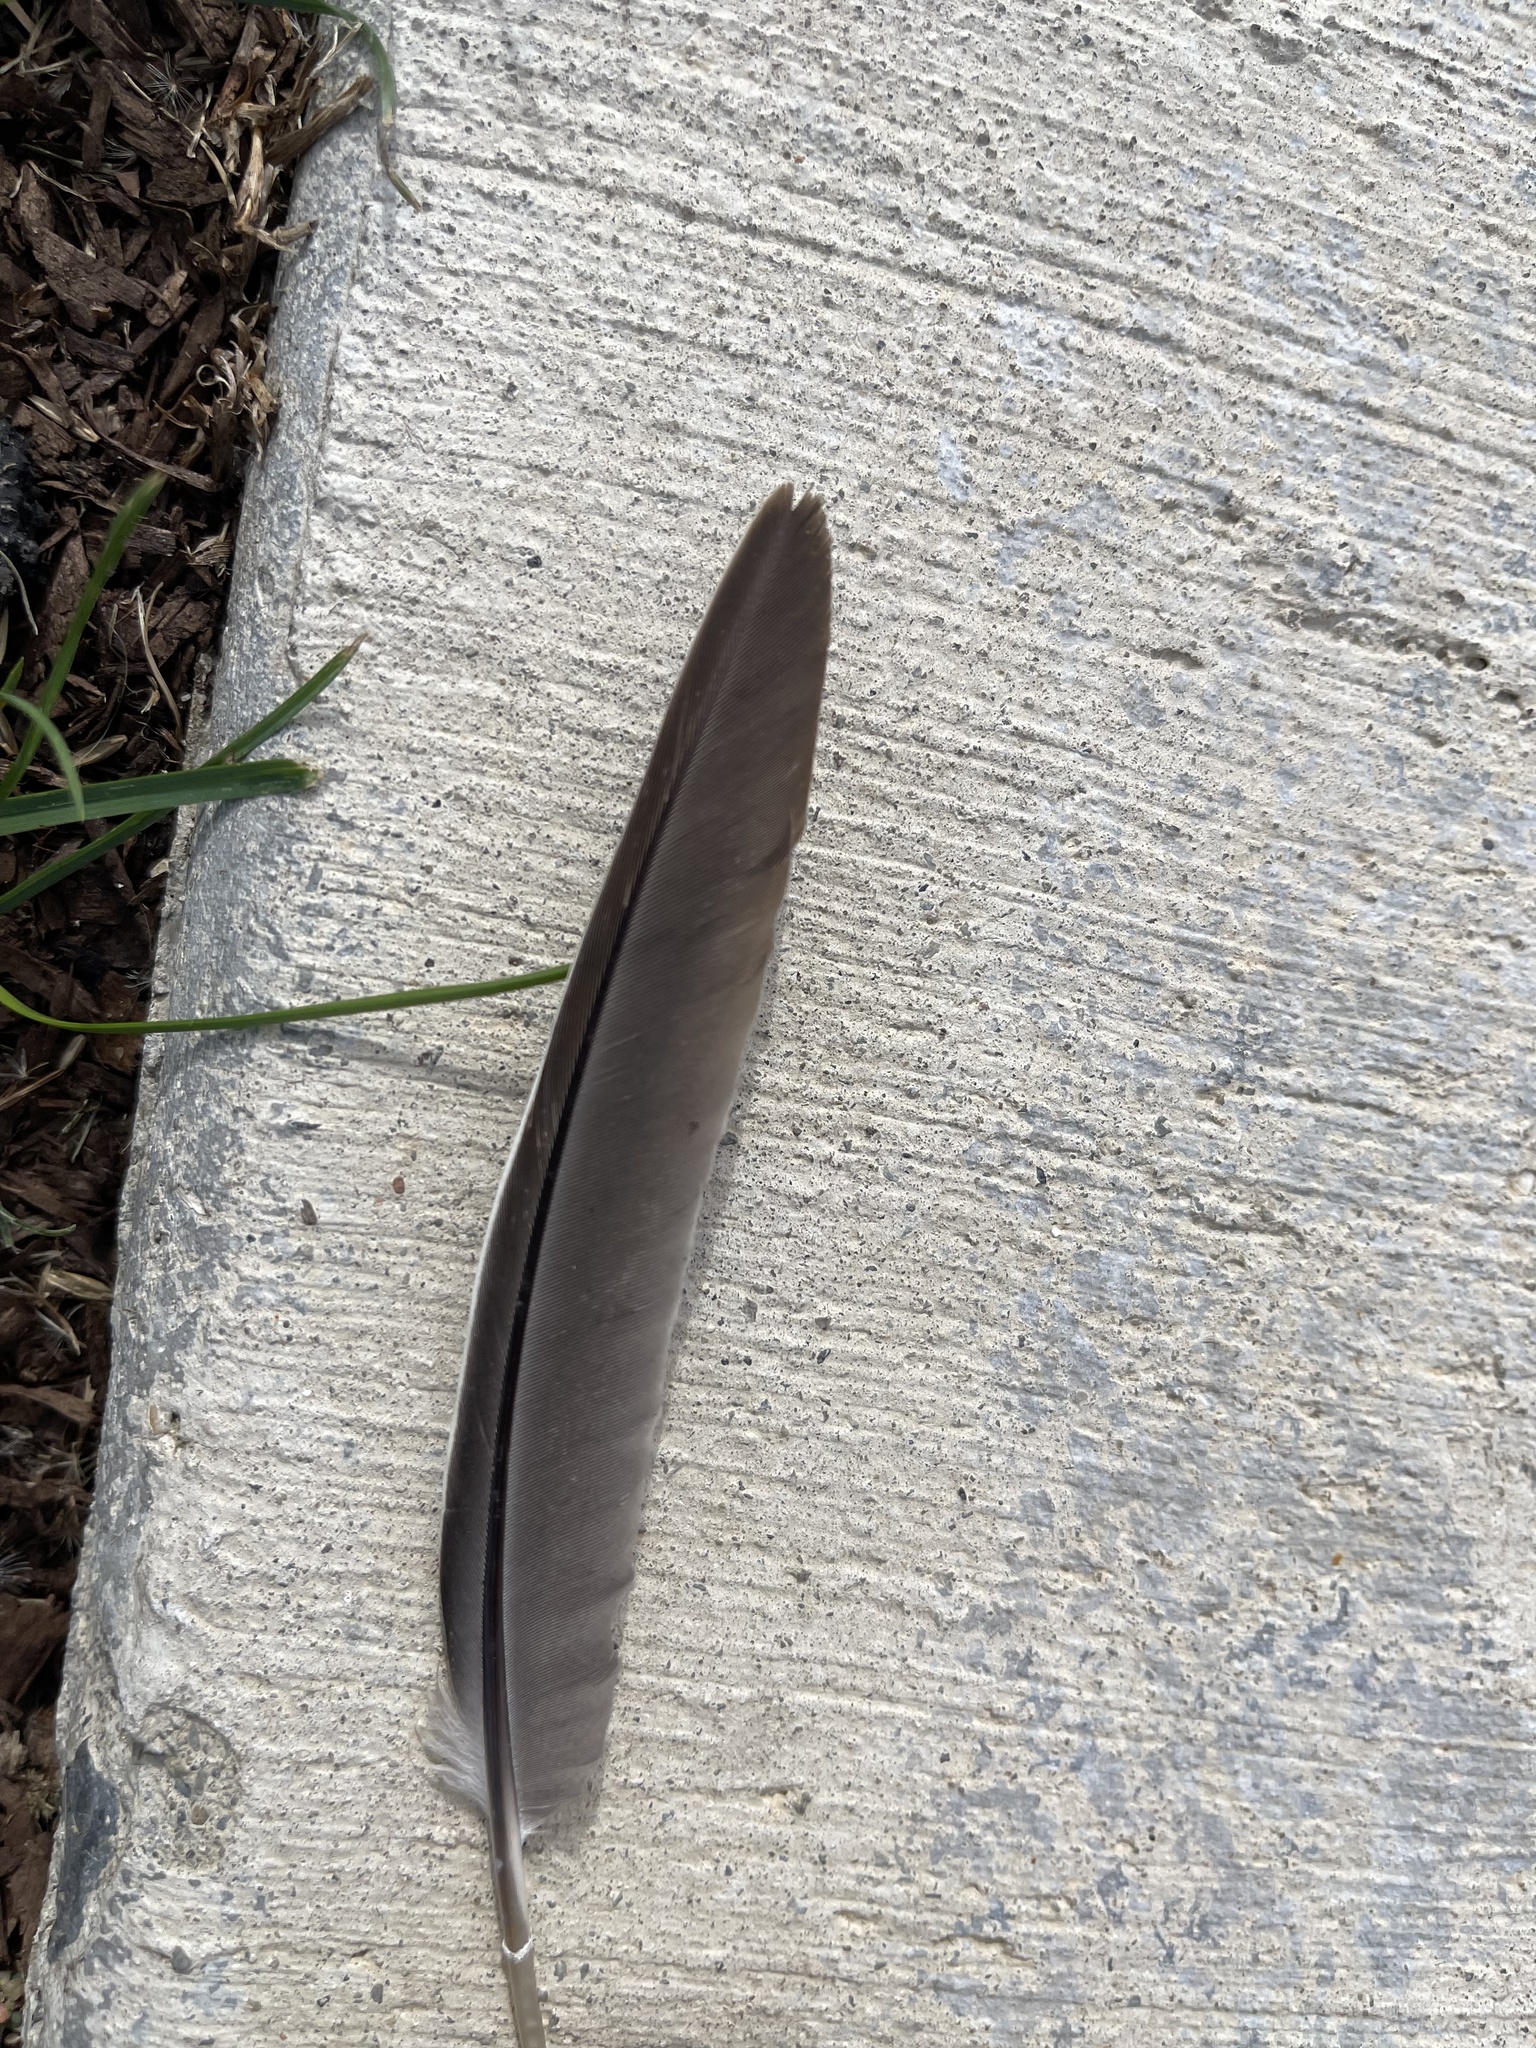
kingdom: Animalia
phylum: Chordata
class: Aves
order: Columbiformes
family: Columbidae
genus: Zenaida
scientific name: Zenaida macroura
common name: Mourning dove
